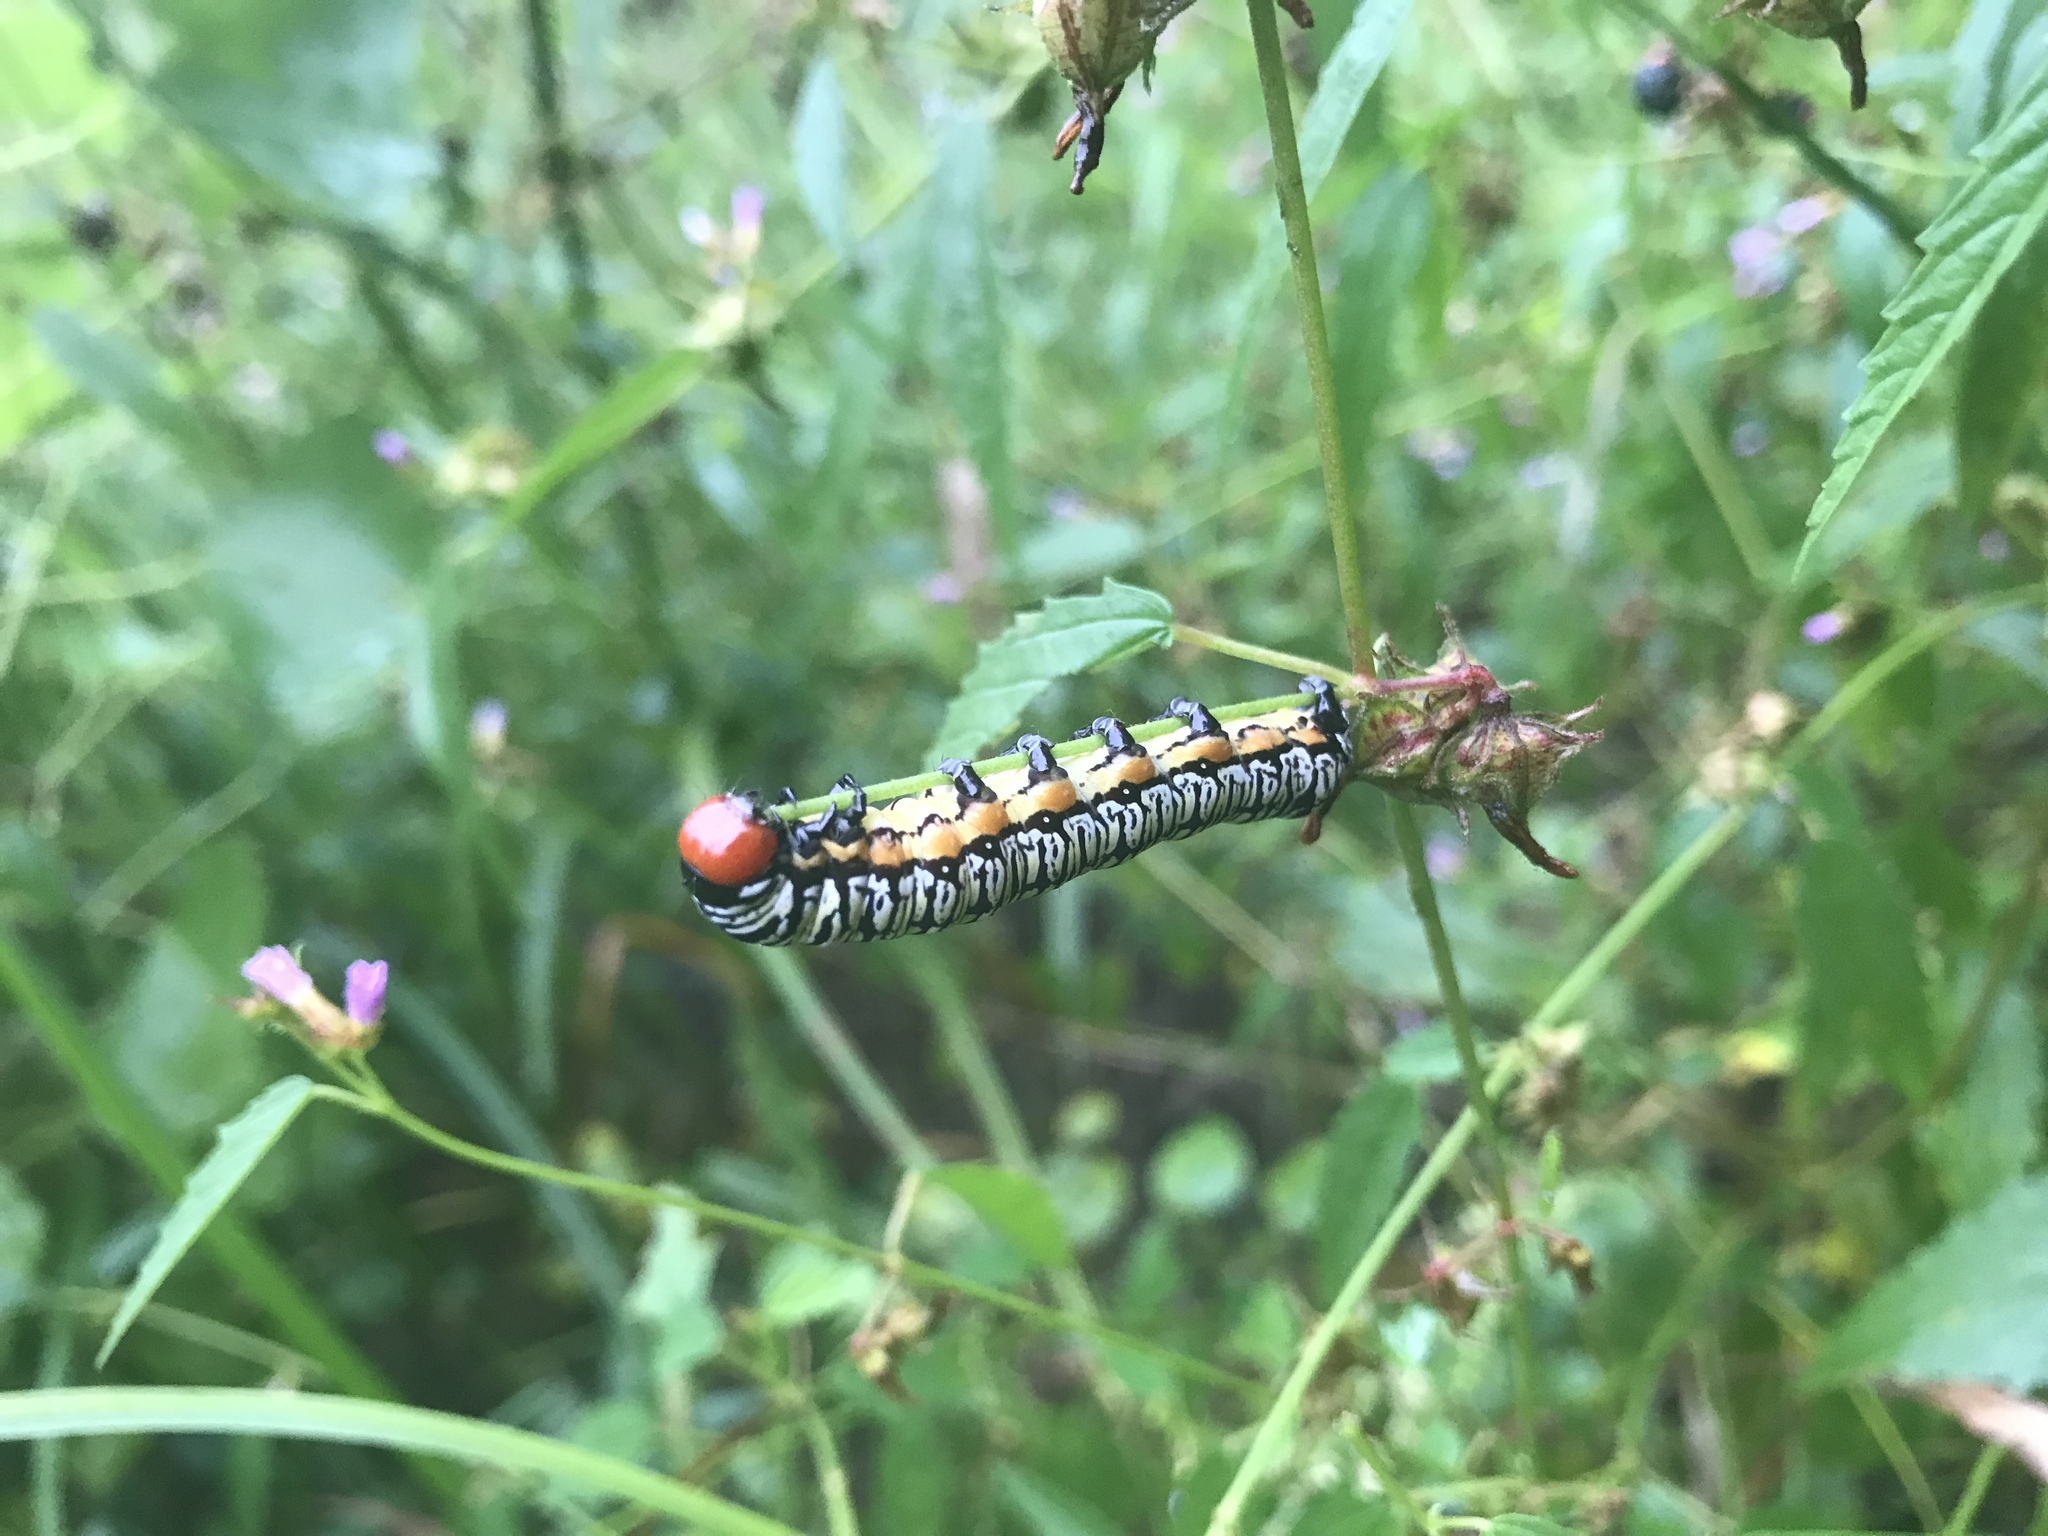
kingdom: Animalia
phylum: Arthropoda
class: Insecta
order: Lepidoptera
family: Erebidae
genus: Diphthera
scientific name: Diphthera festiva
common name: Hieroglyphic moth
